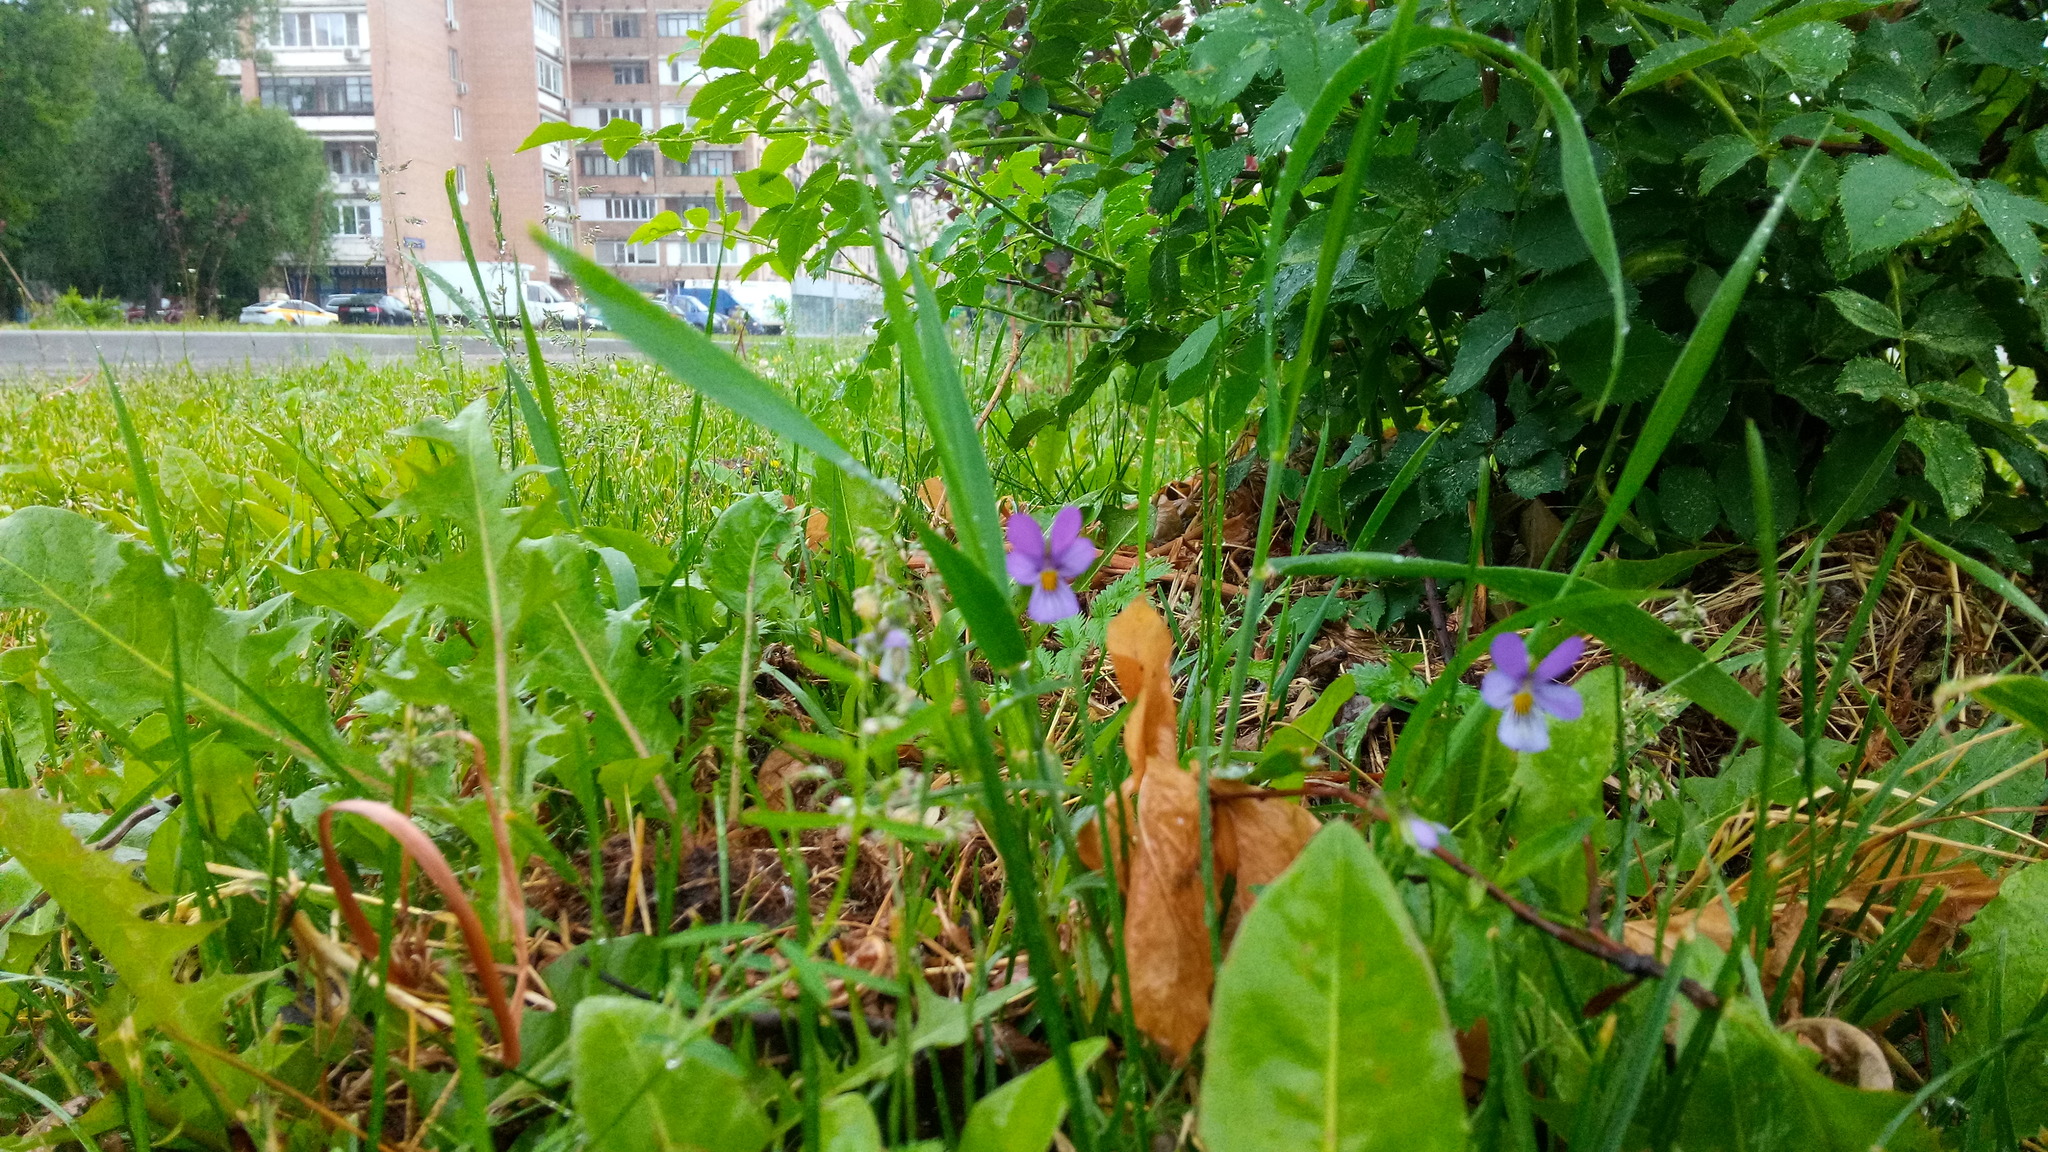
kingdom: Plantae
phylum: Tracheophyta
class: Magnoliopsida
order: Malpighiales
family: Violaceae
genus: Viola
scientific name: Viola tricolor
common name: Pansy
